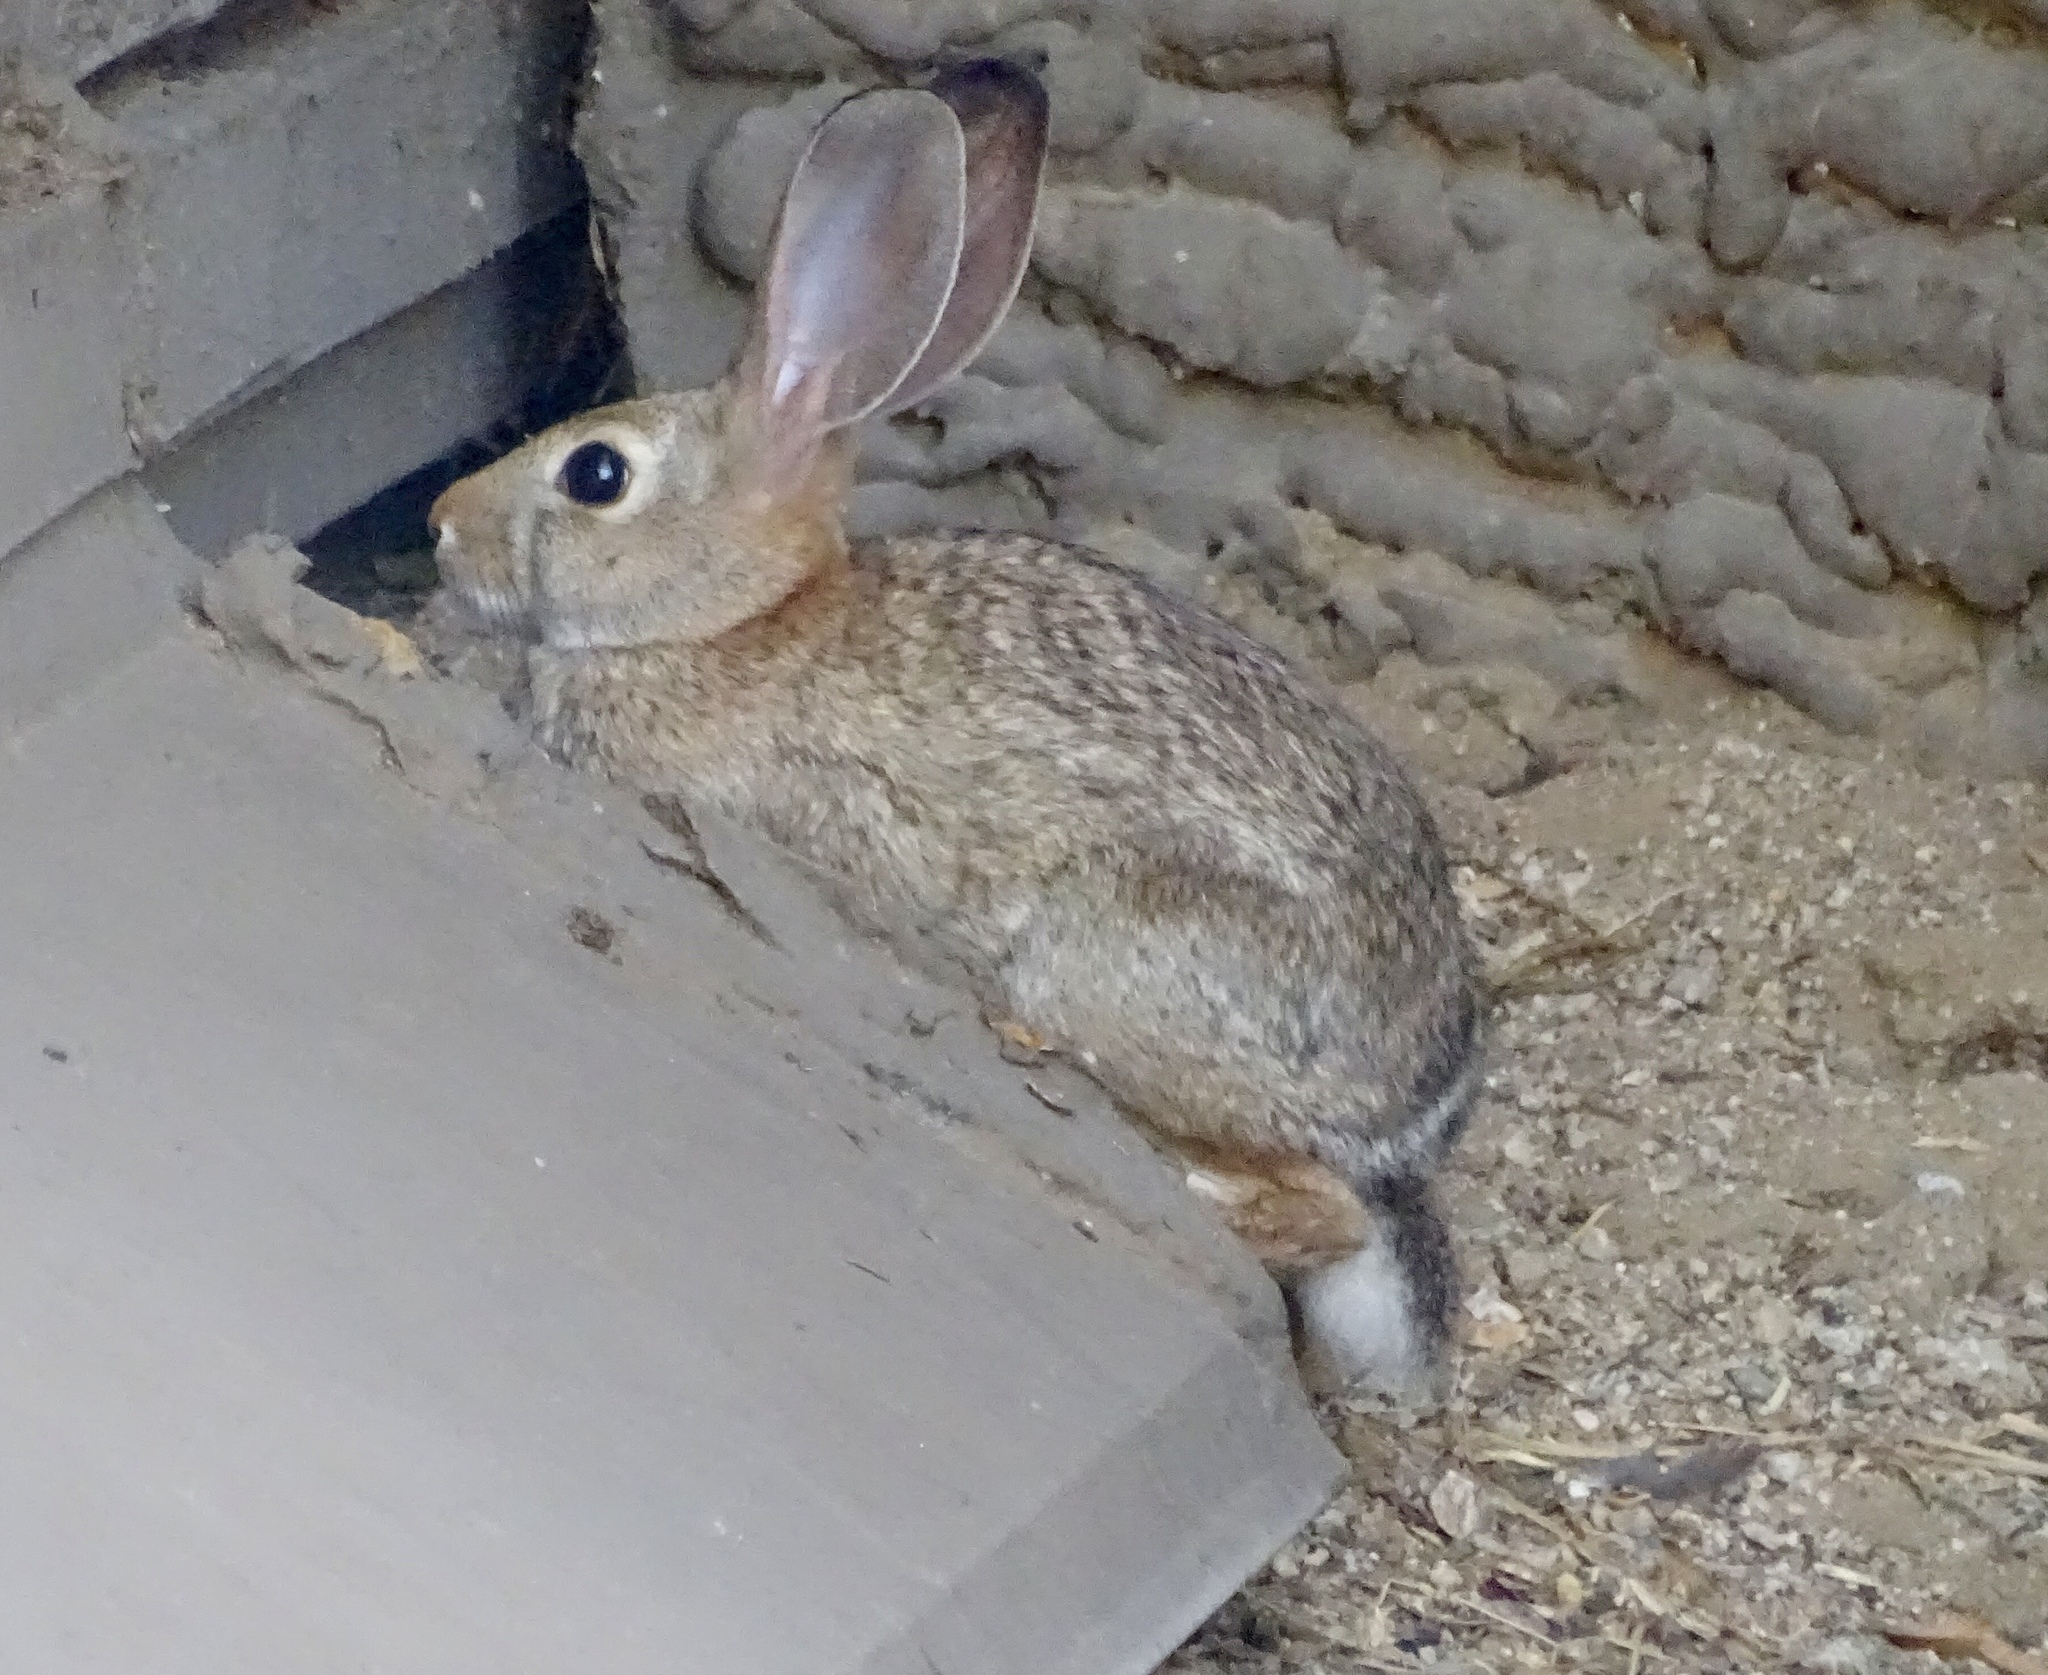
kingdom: Animalia
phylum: Chordata
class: Mammalia
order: Lagomorpha
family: Leporidae
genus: Sylvilagus
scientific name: Sylvilagus audubonii
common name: Desert cottontail
